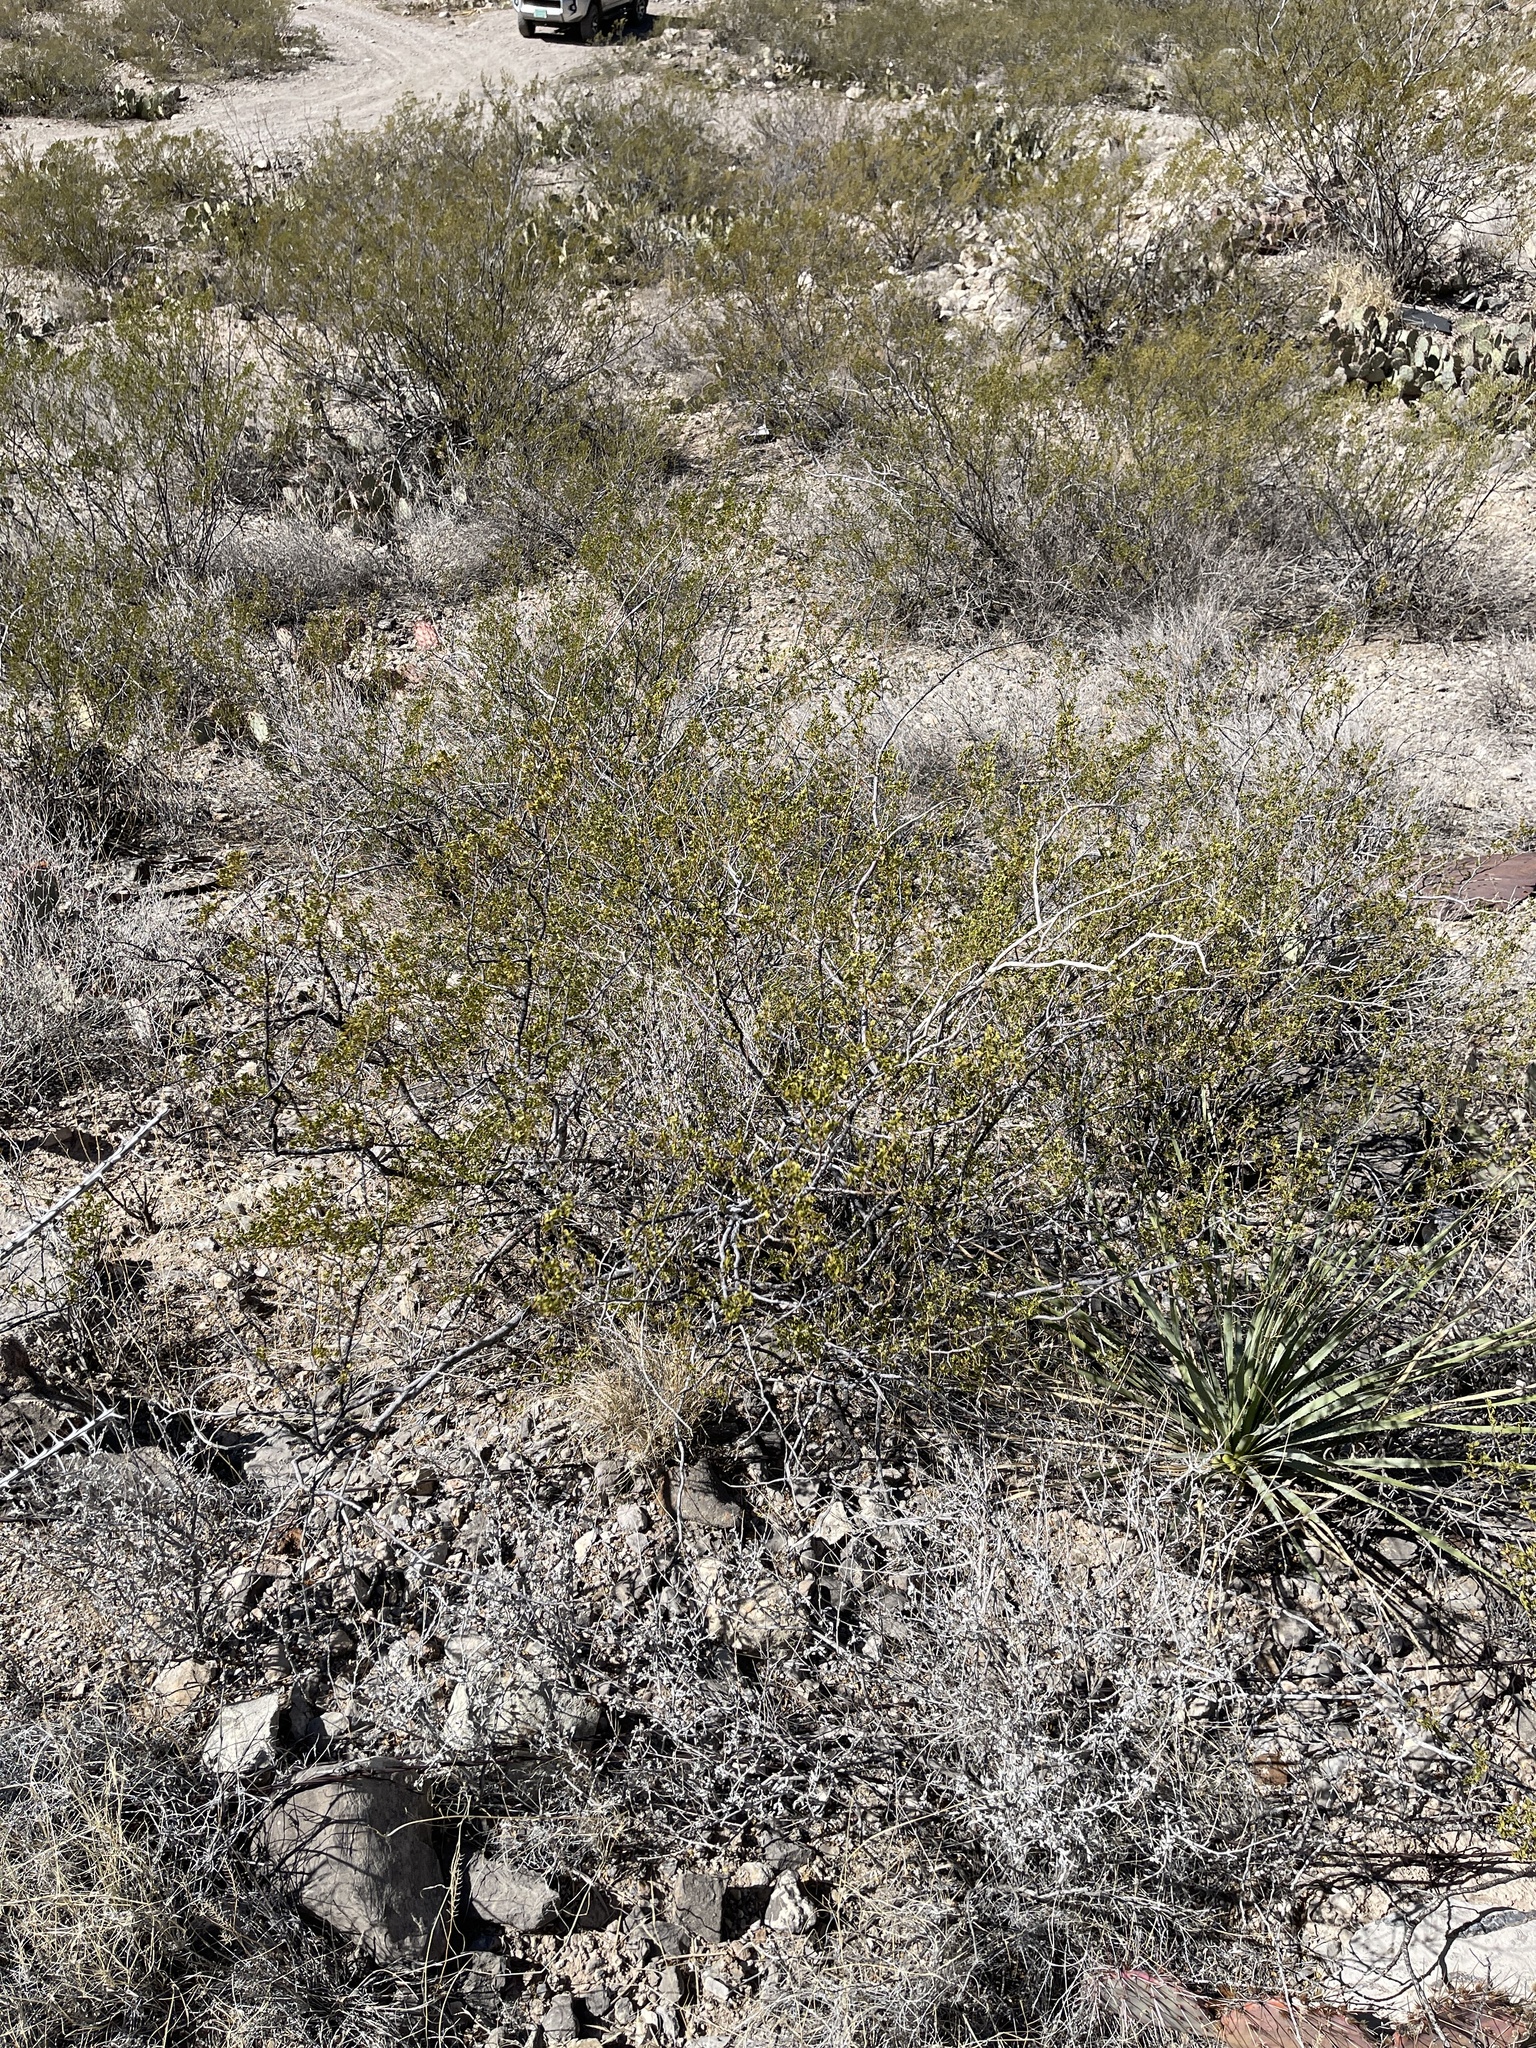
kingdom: Plantae
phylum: Tracheophyta
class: Magnoliopsida
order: Zygophyllales
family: Zygophyllaceae
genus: Larrea
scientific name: Larrea tridentata
